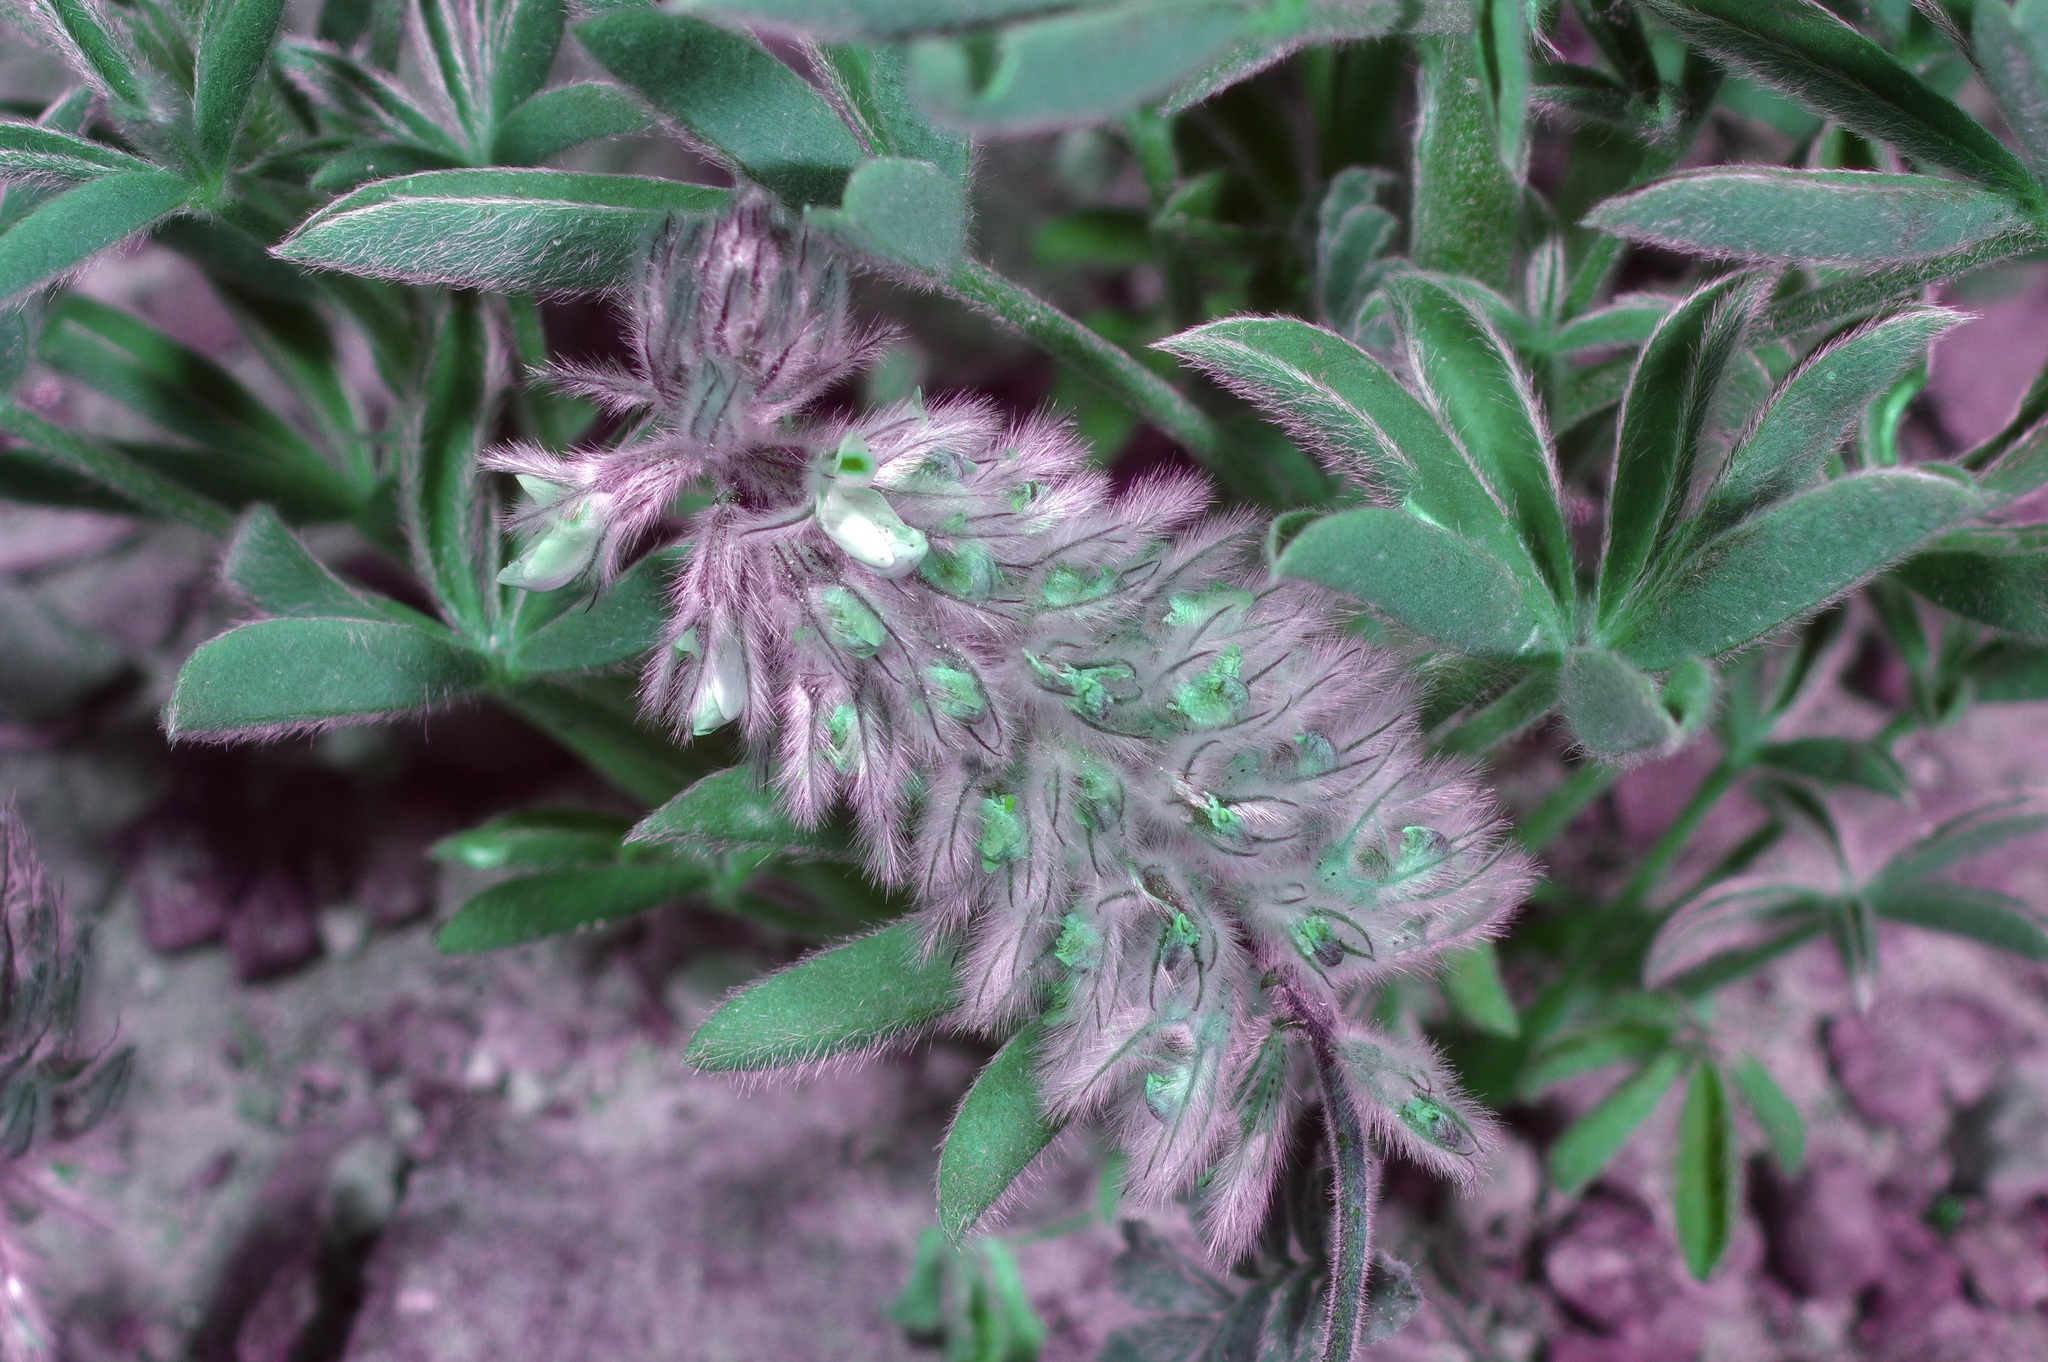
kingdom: Plantae
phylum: Tracheophyta
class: Magnoliopsida
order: Fabales
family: Fabaceae
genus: Dalea
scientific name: Dalea neomexicana
